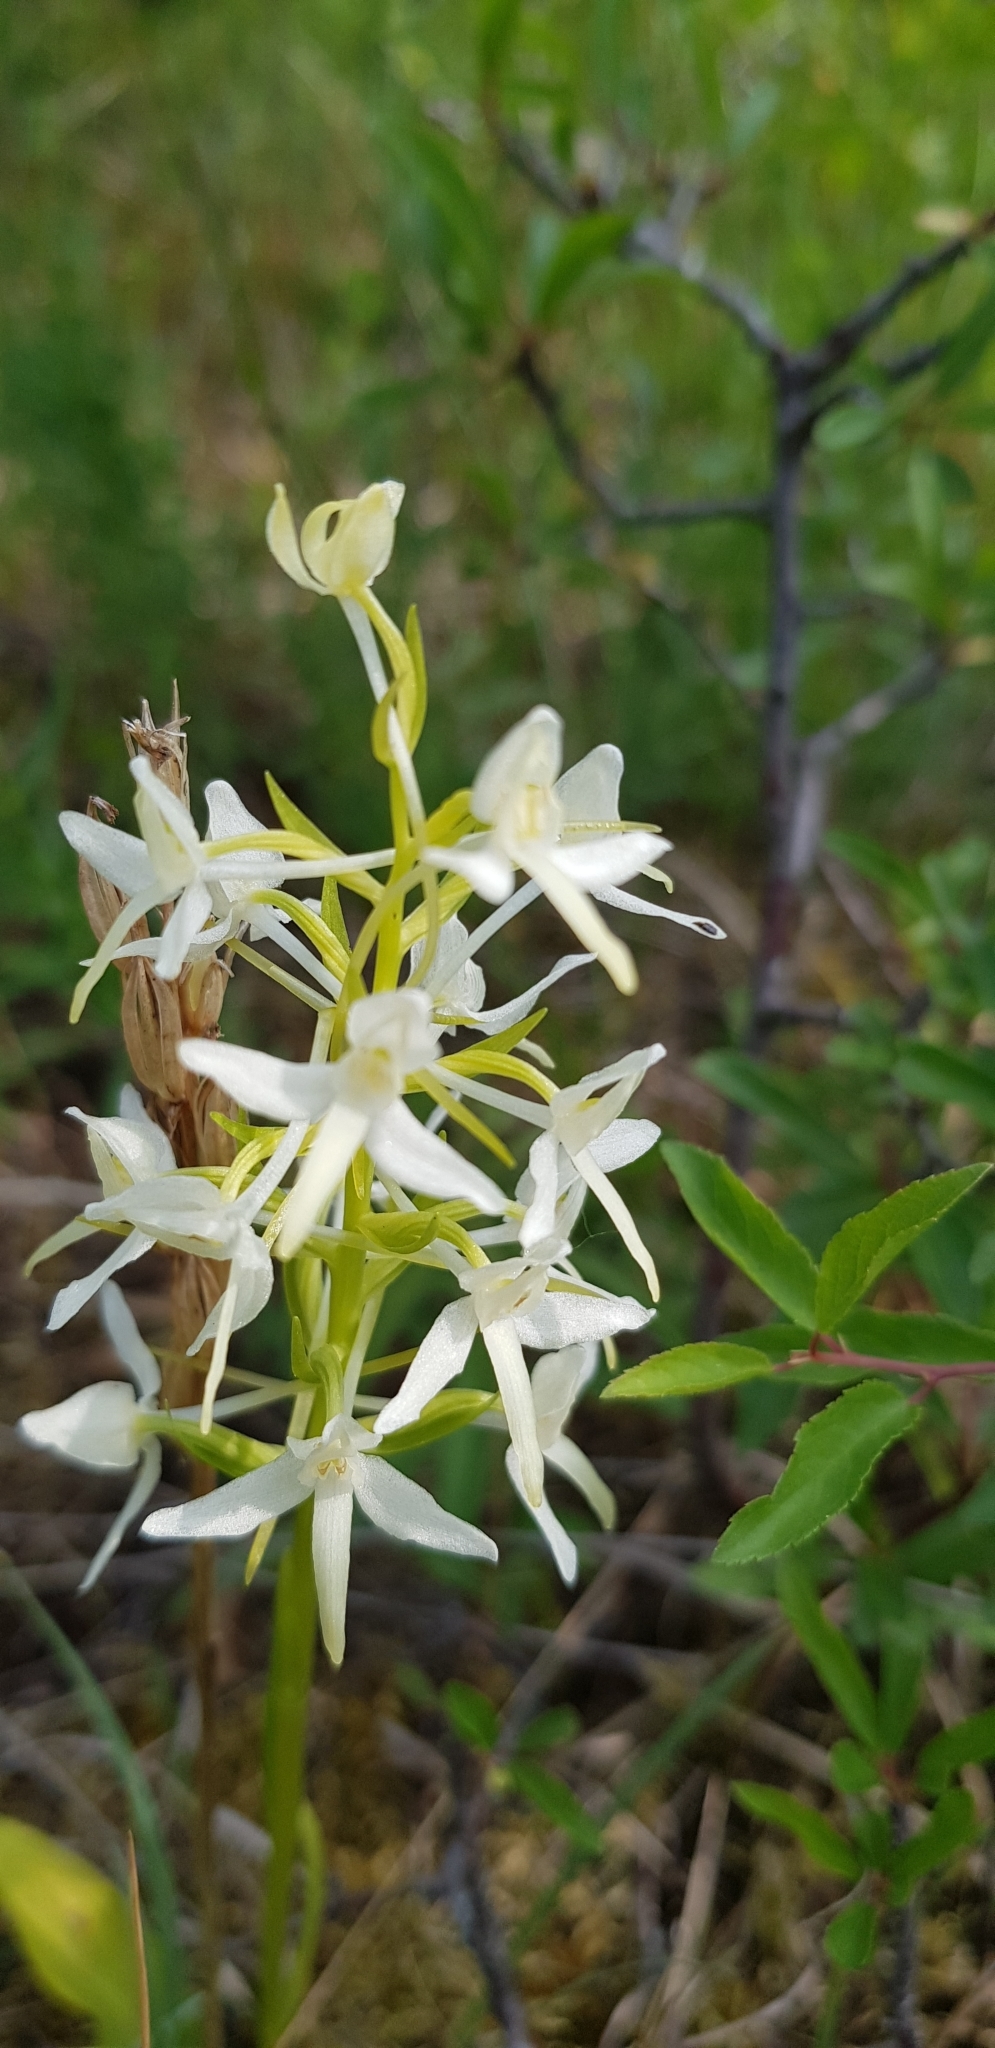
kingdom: Plantae
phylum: Tracheophyta
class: Liliopsida
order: Asparagales
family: Orchidaceae
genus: Platanthera
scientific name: Platanthera bifolia
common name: Lesser butterfly-orchid
